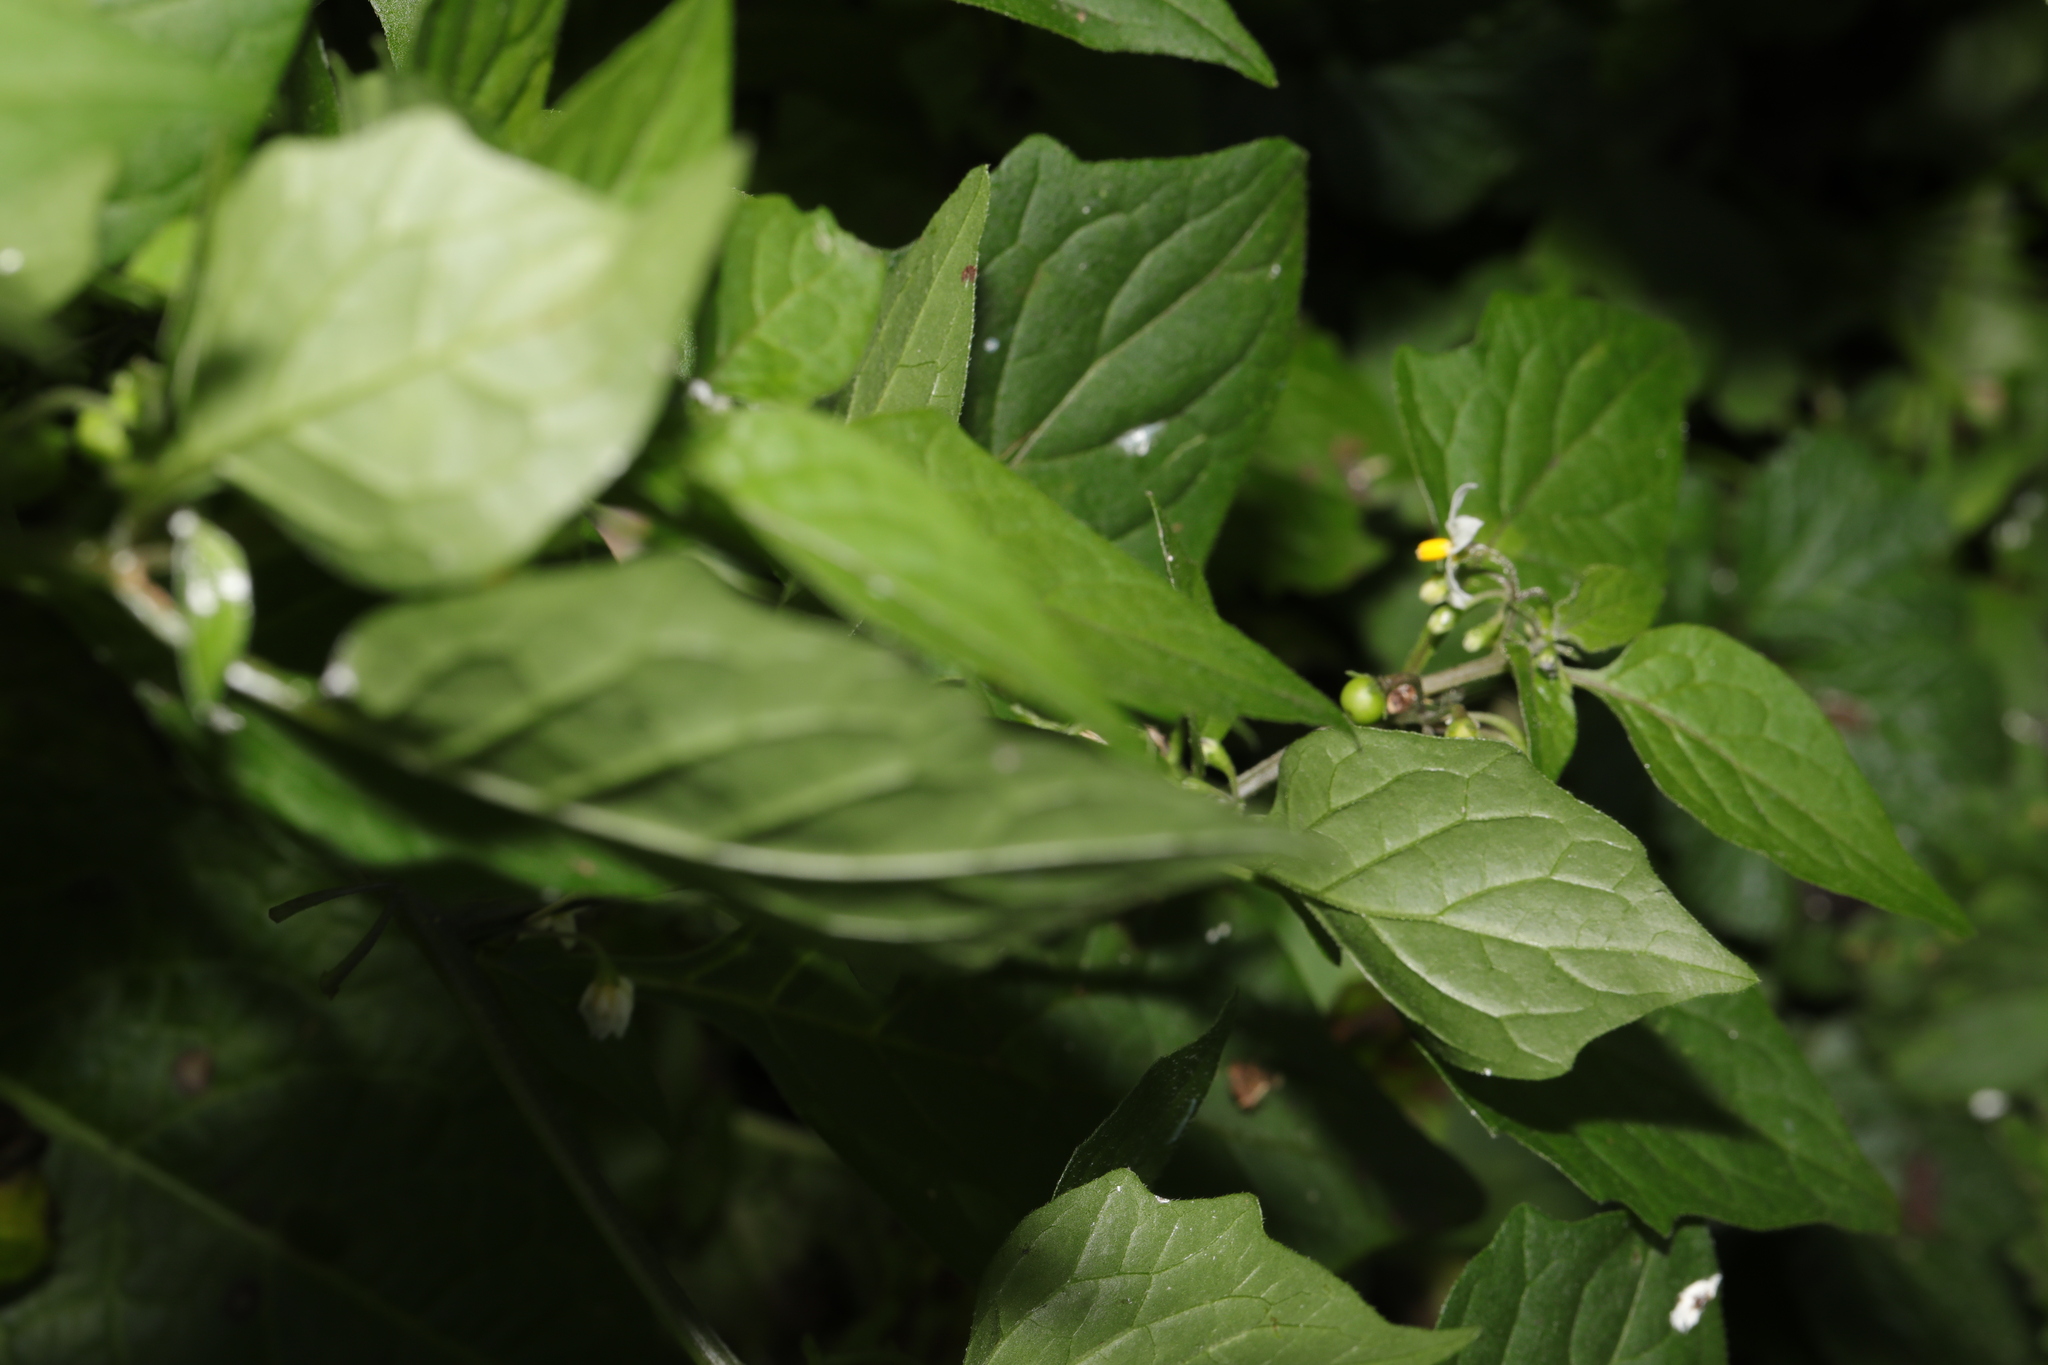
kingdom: Plantae
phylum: Tracheophyta
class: Magnoliopsida
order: Solanales
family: Solanaceae
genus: Solanum
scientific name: Solanum nigrum
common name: Black nightshade
